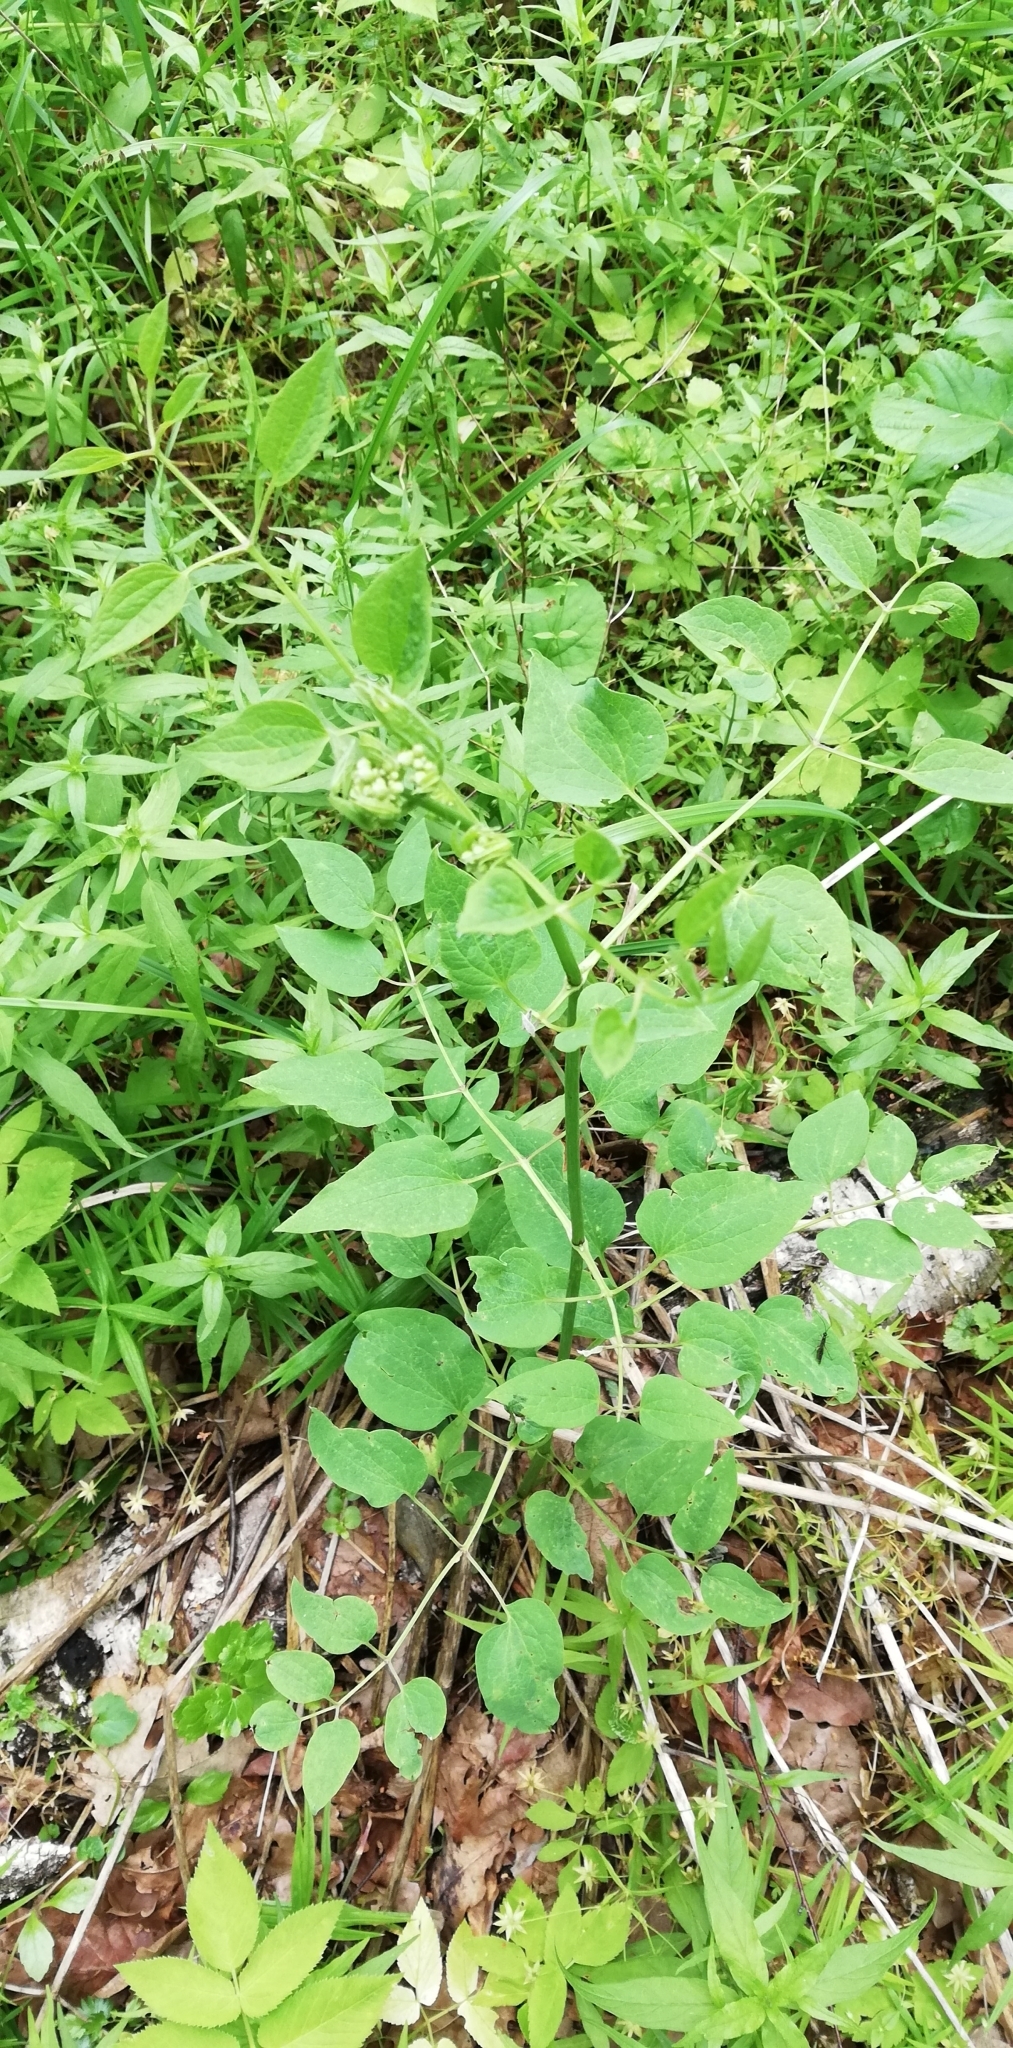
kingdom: Plantae
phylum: Tracheophyta
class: Magnoliopsida
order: Ranunculales
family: Ranunculaceae
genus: Clematis
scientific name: Clematis recta
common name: Ground clematis
